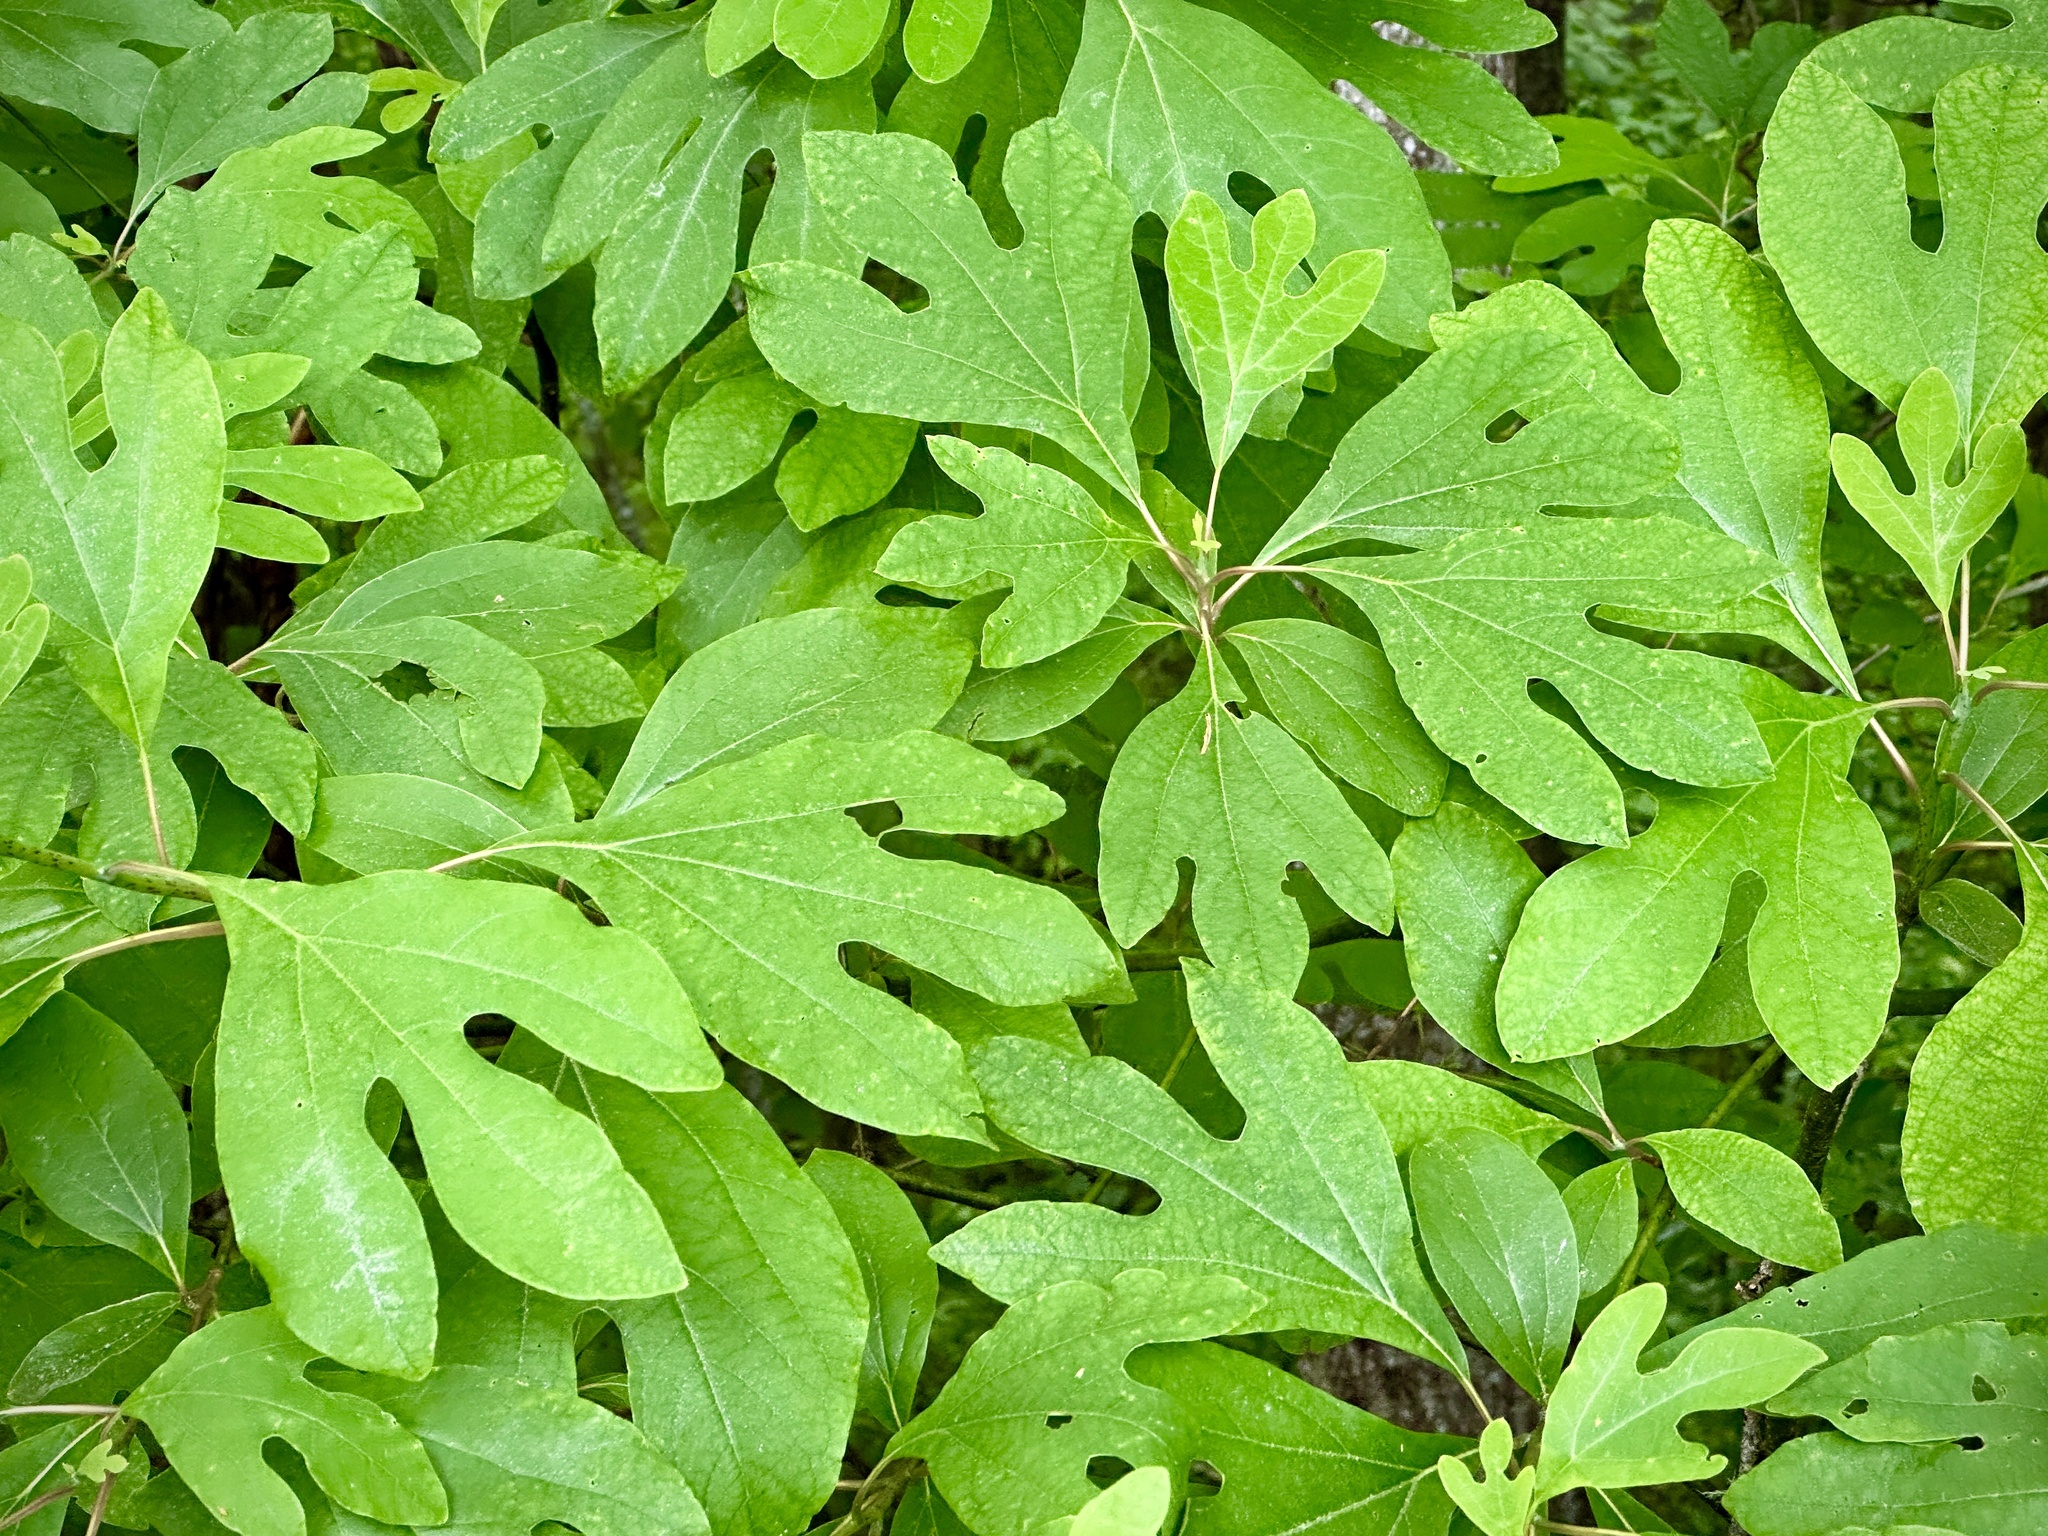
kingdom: Plantae
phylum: Tracheophyta
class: Magnoliopsida
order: Laurales
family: Lauraceae
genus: Sassafras
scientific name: Sassafras albidum
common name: Sassafras
